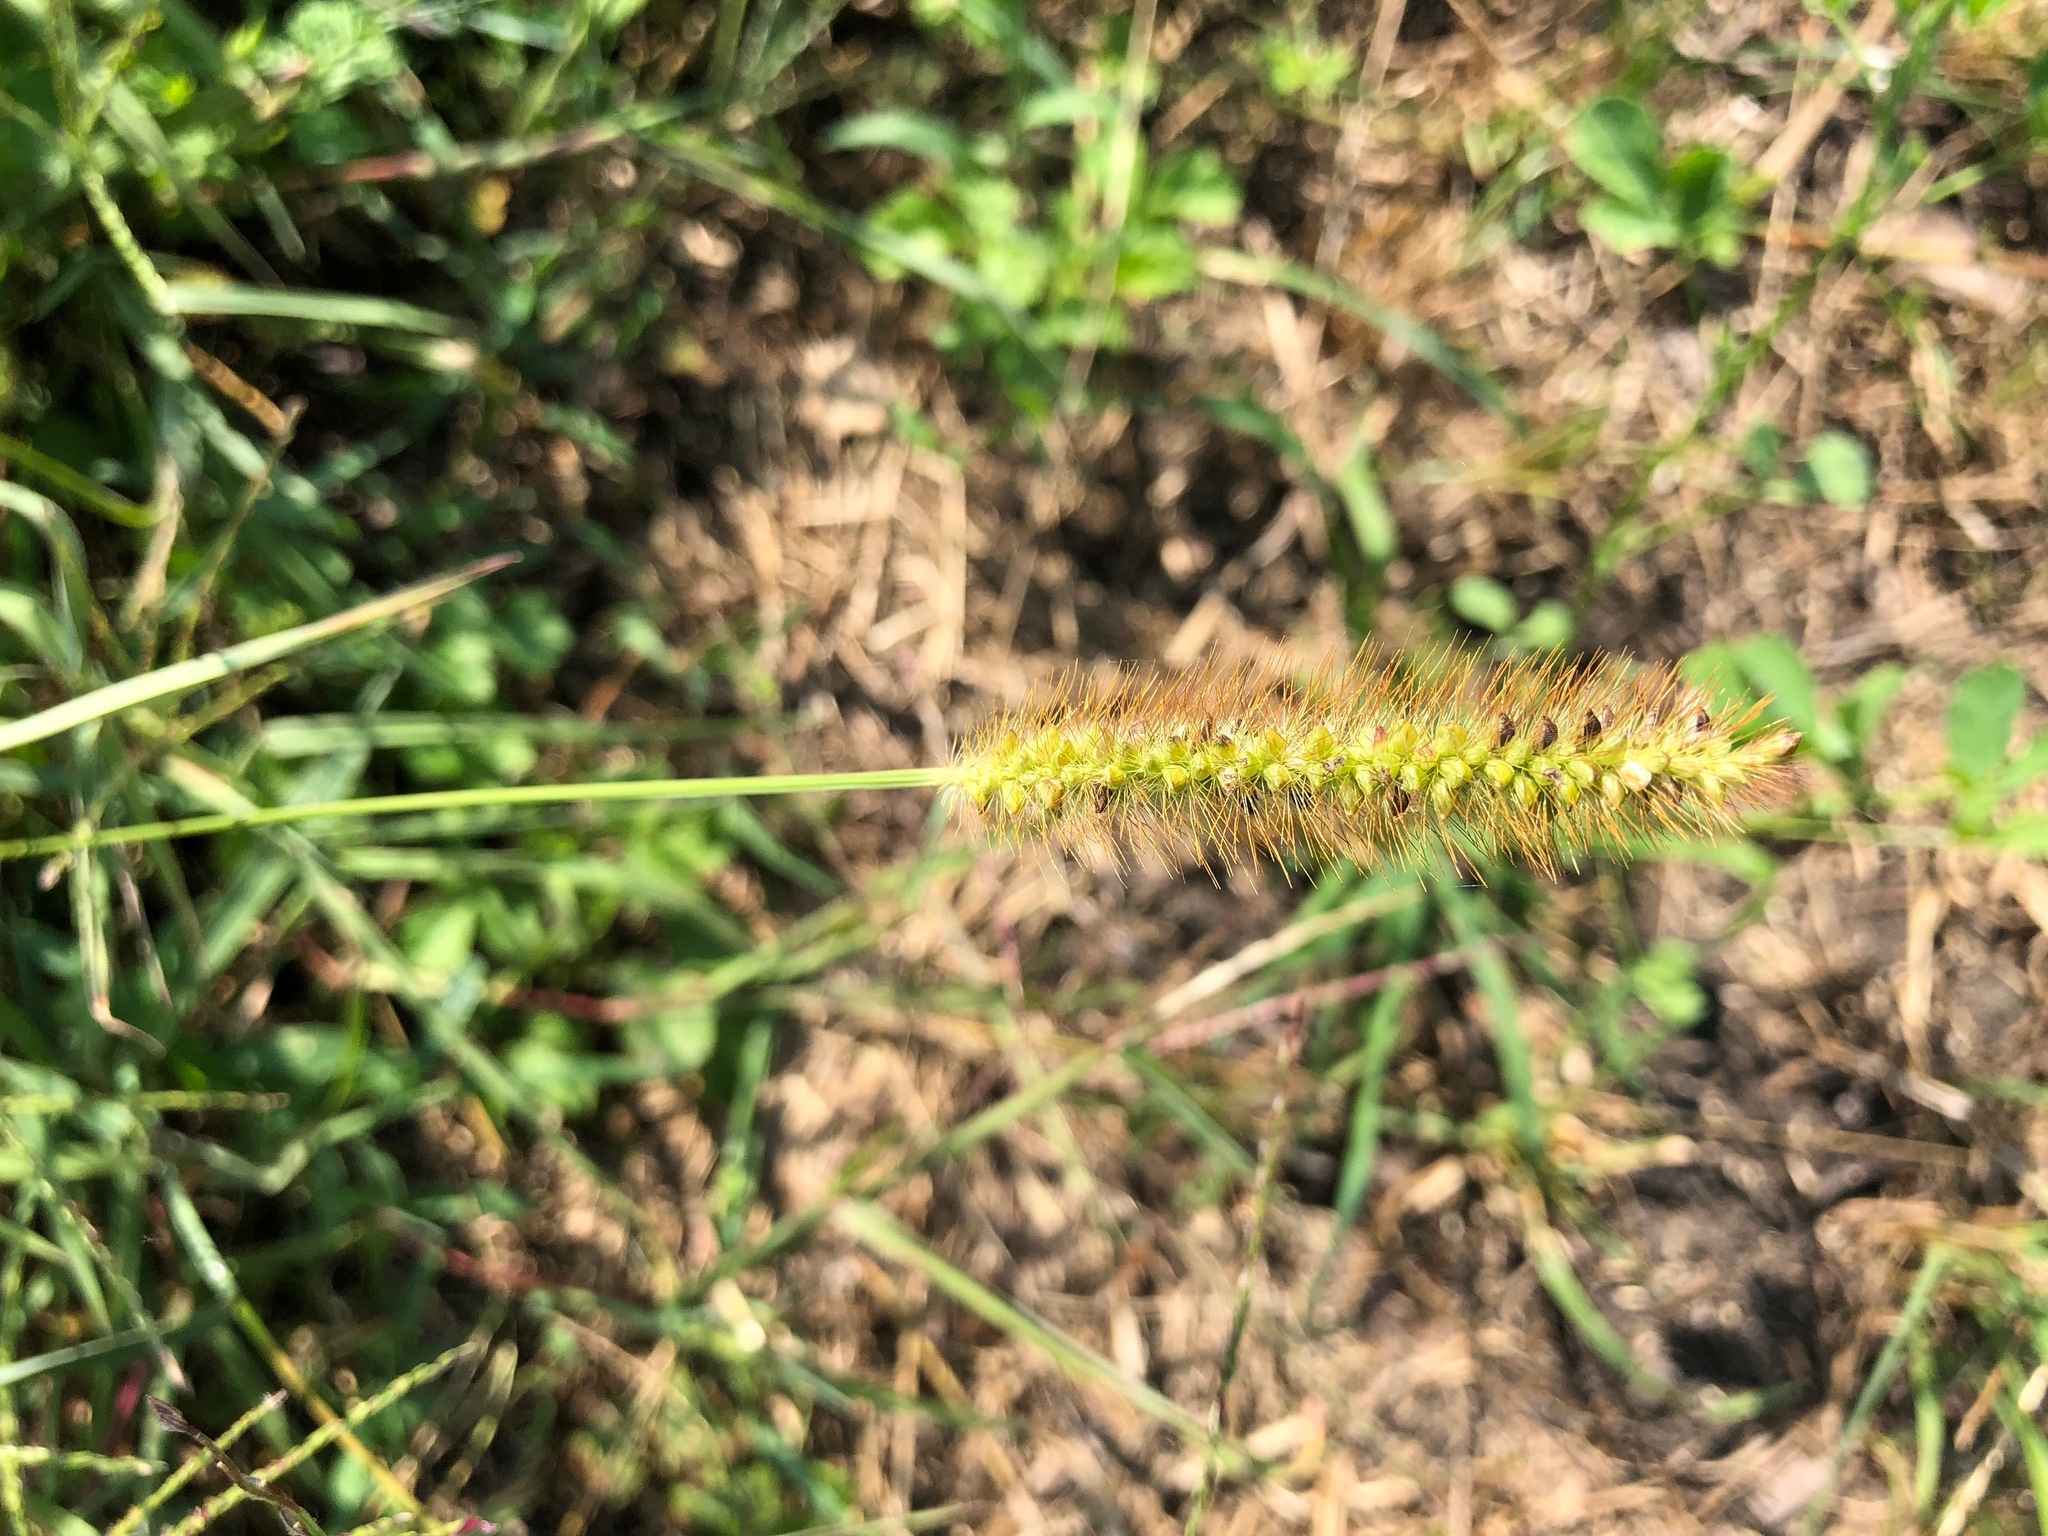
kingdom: Plantae
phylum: Tracheophyta
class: Liliopsida
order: Poales
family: Poaceae
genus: Setaria
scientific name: Setaria pumila
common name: Yellow bristle-grass
